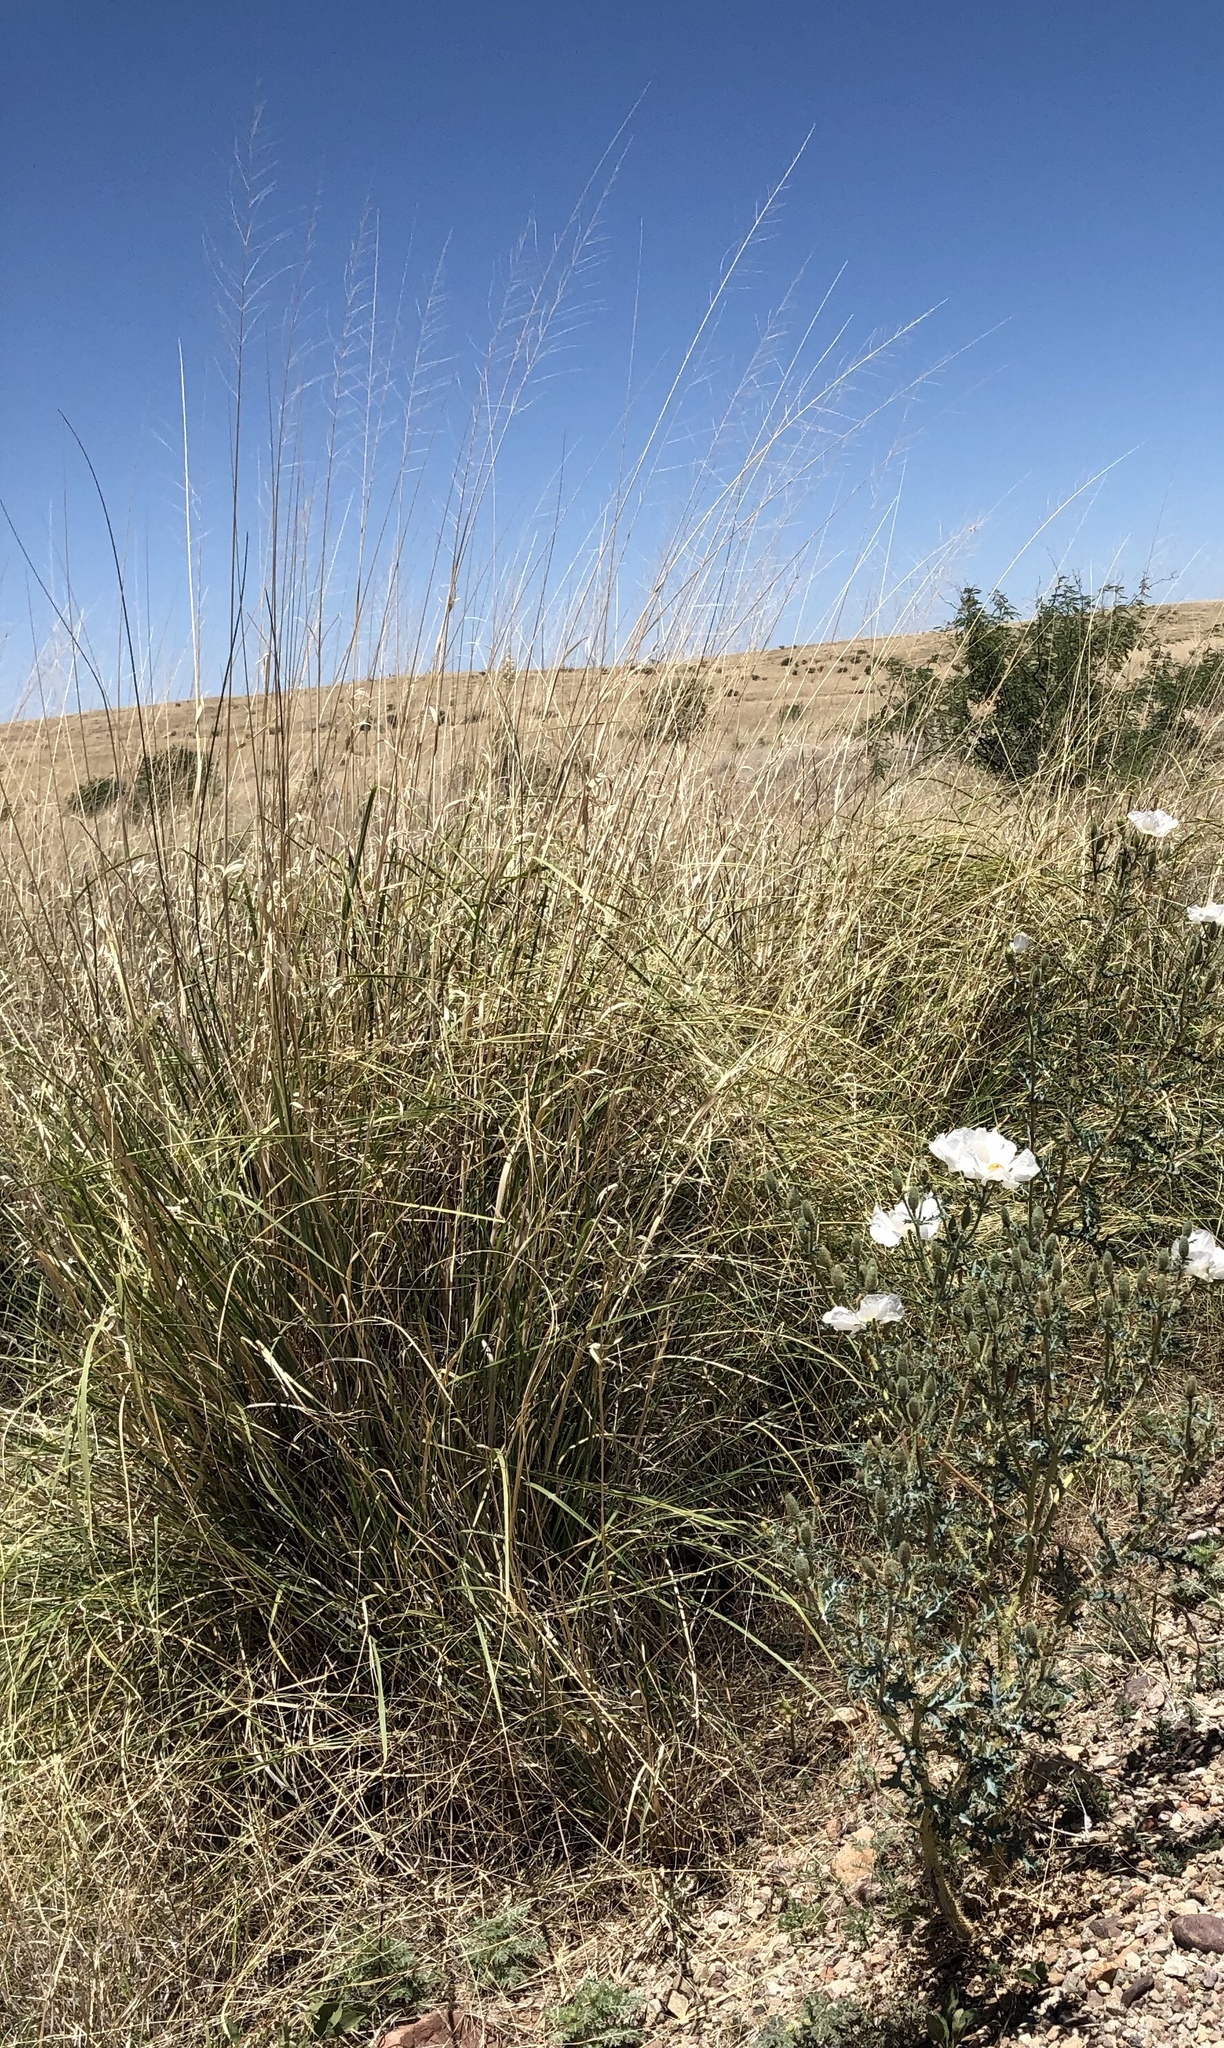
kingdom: Plantae
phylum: Tracheophyta
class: Liliopsida
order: Poales
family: Poaceae
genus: Sporobolus
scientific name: Sporobolus wrightii
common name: Big alkali sacaton
